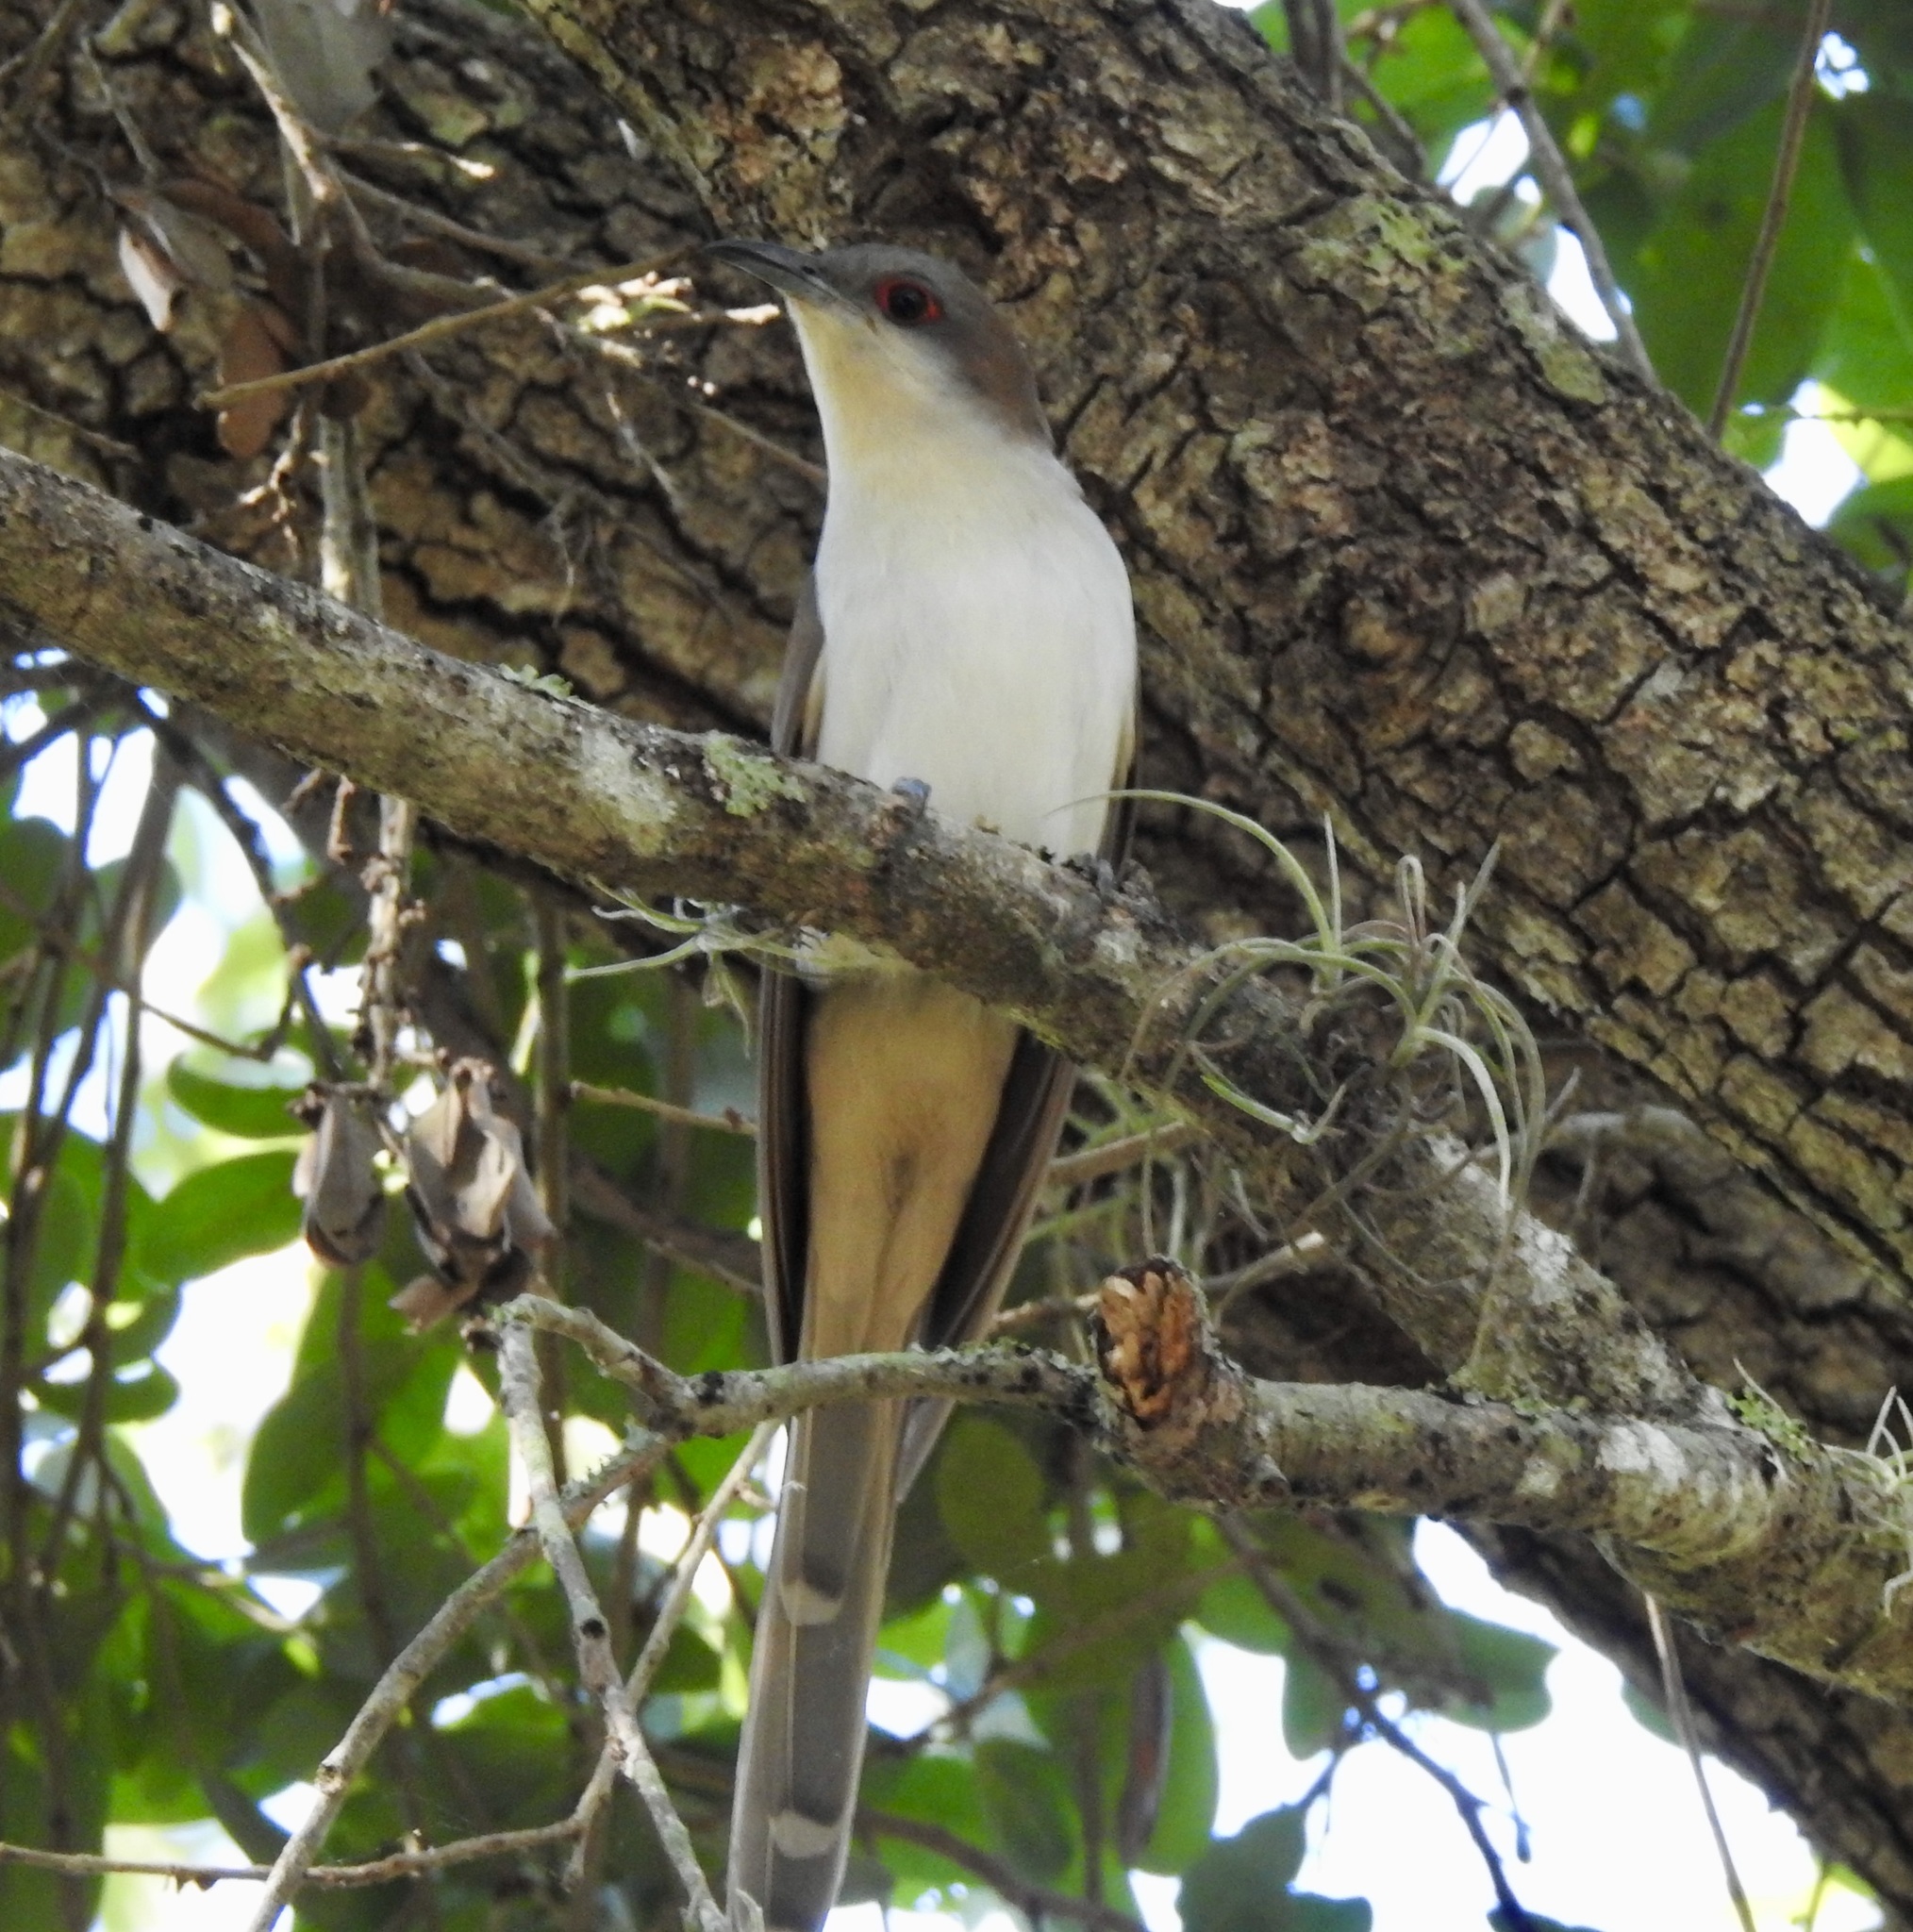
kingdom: Animalia
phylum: Chordata
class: Aves
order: Cuculiformes
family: Cuculidae
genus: Coccyzus
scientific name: Coccyzus erythropthalmus
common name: Black-billed cuckoo
